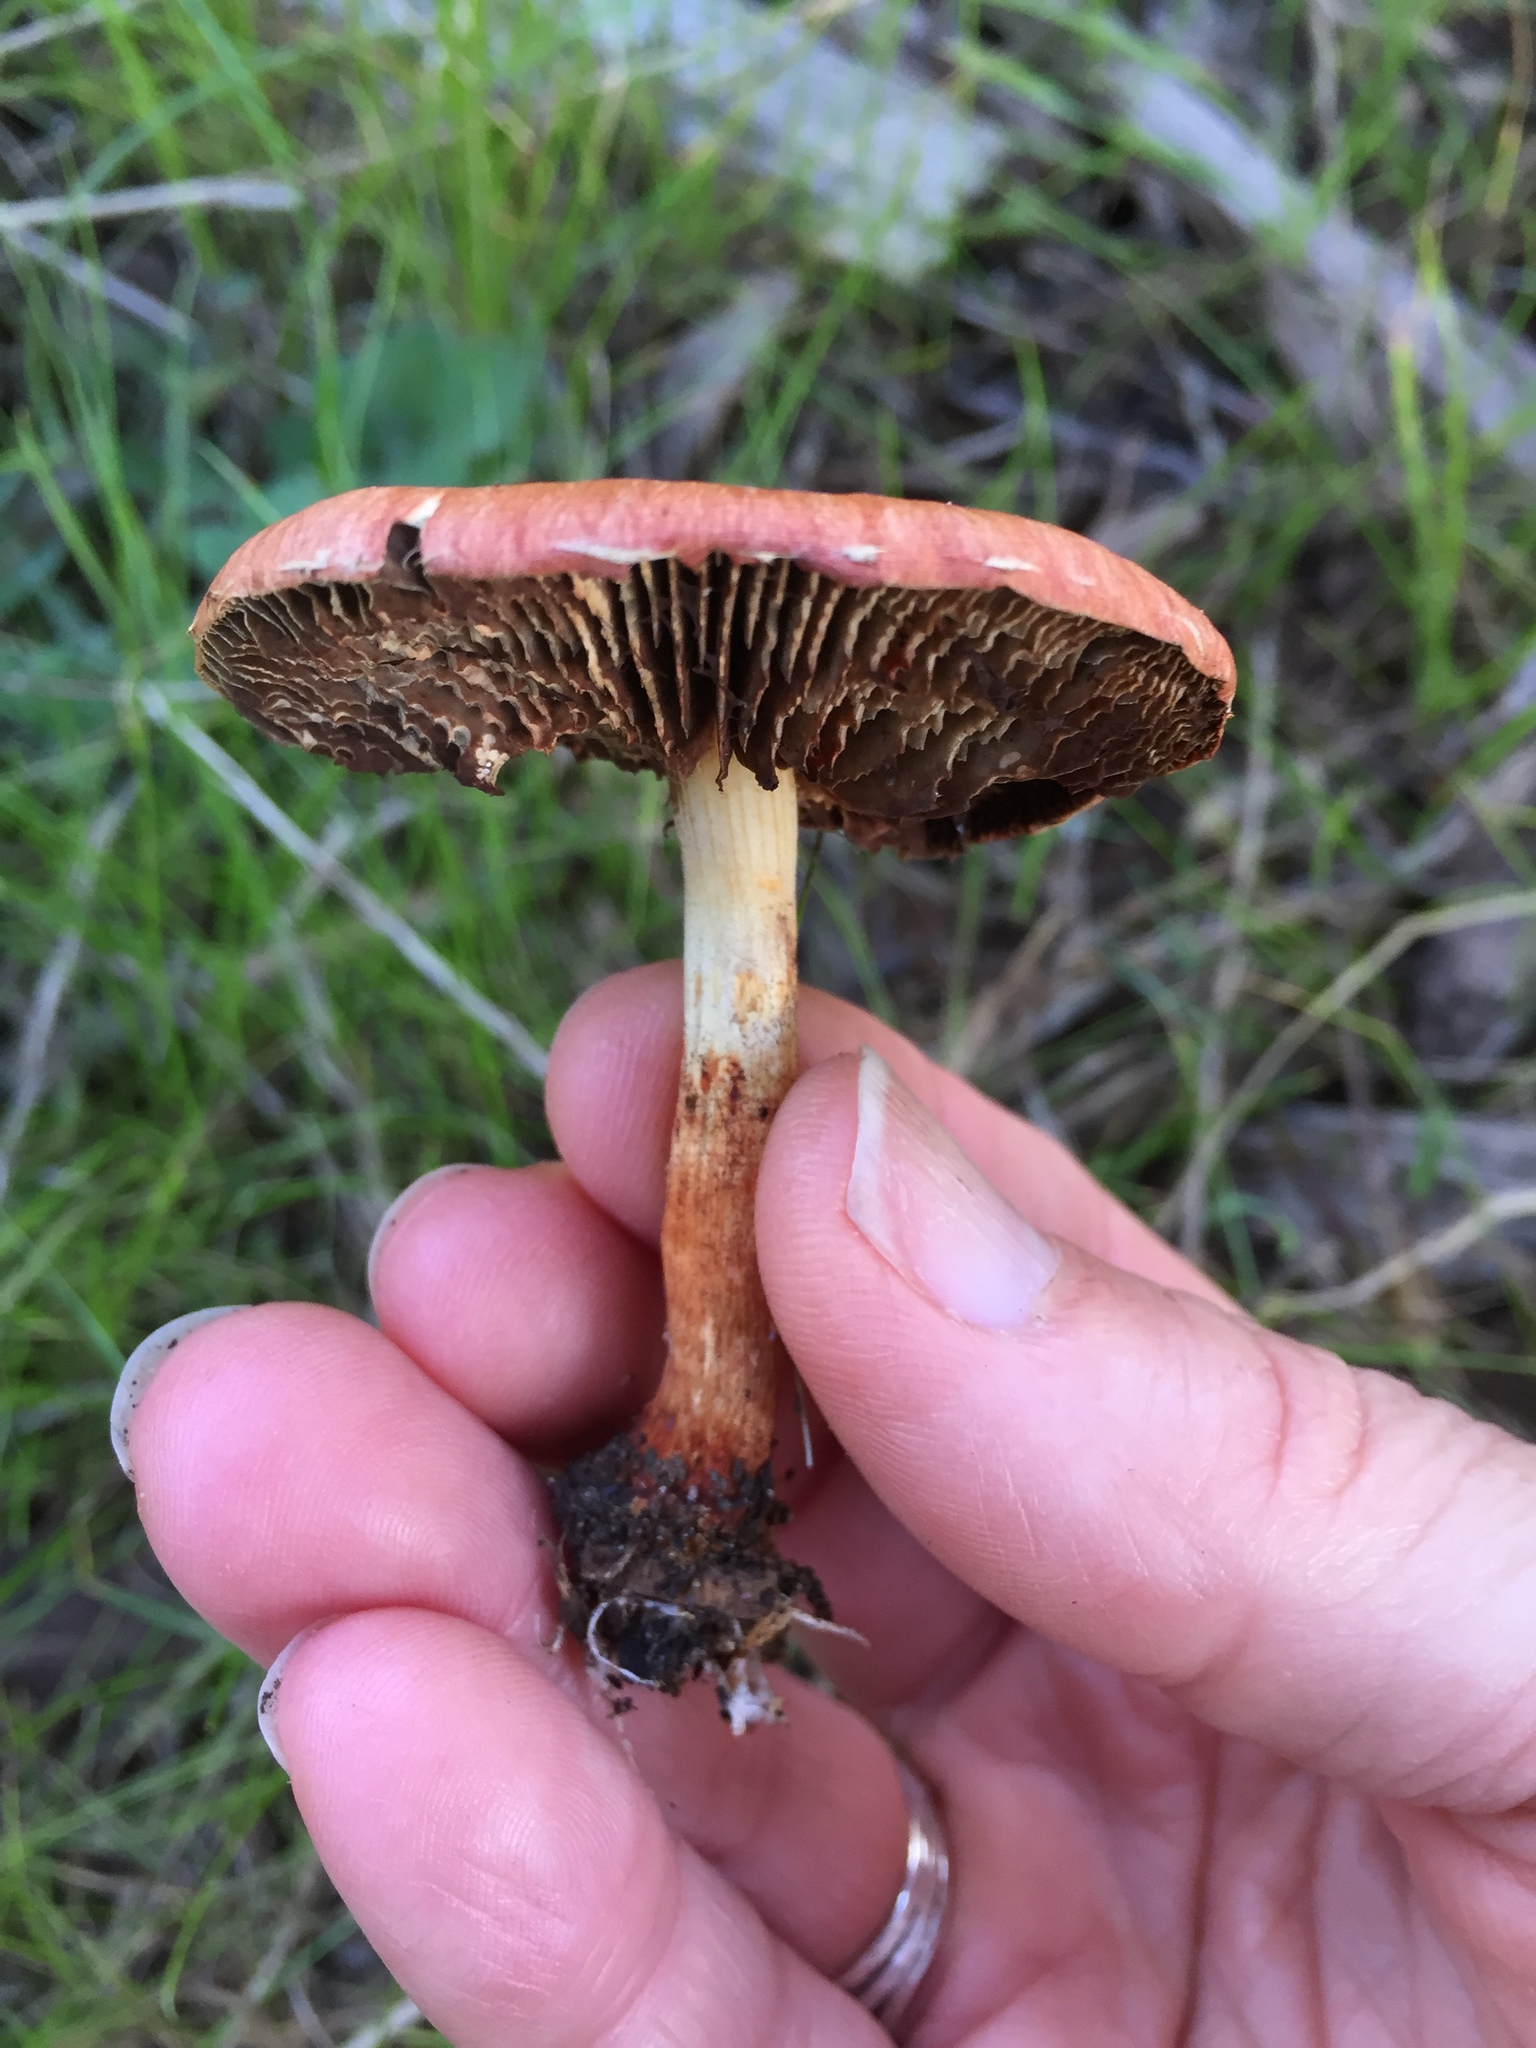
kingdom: Fungi
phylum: Basidiomycota
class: Agaricomycetes
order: Agaricales
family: Strophariaceae
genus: Leratiomyces
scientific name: Leratiomyces ceres
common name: Redlead roundhead
